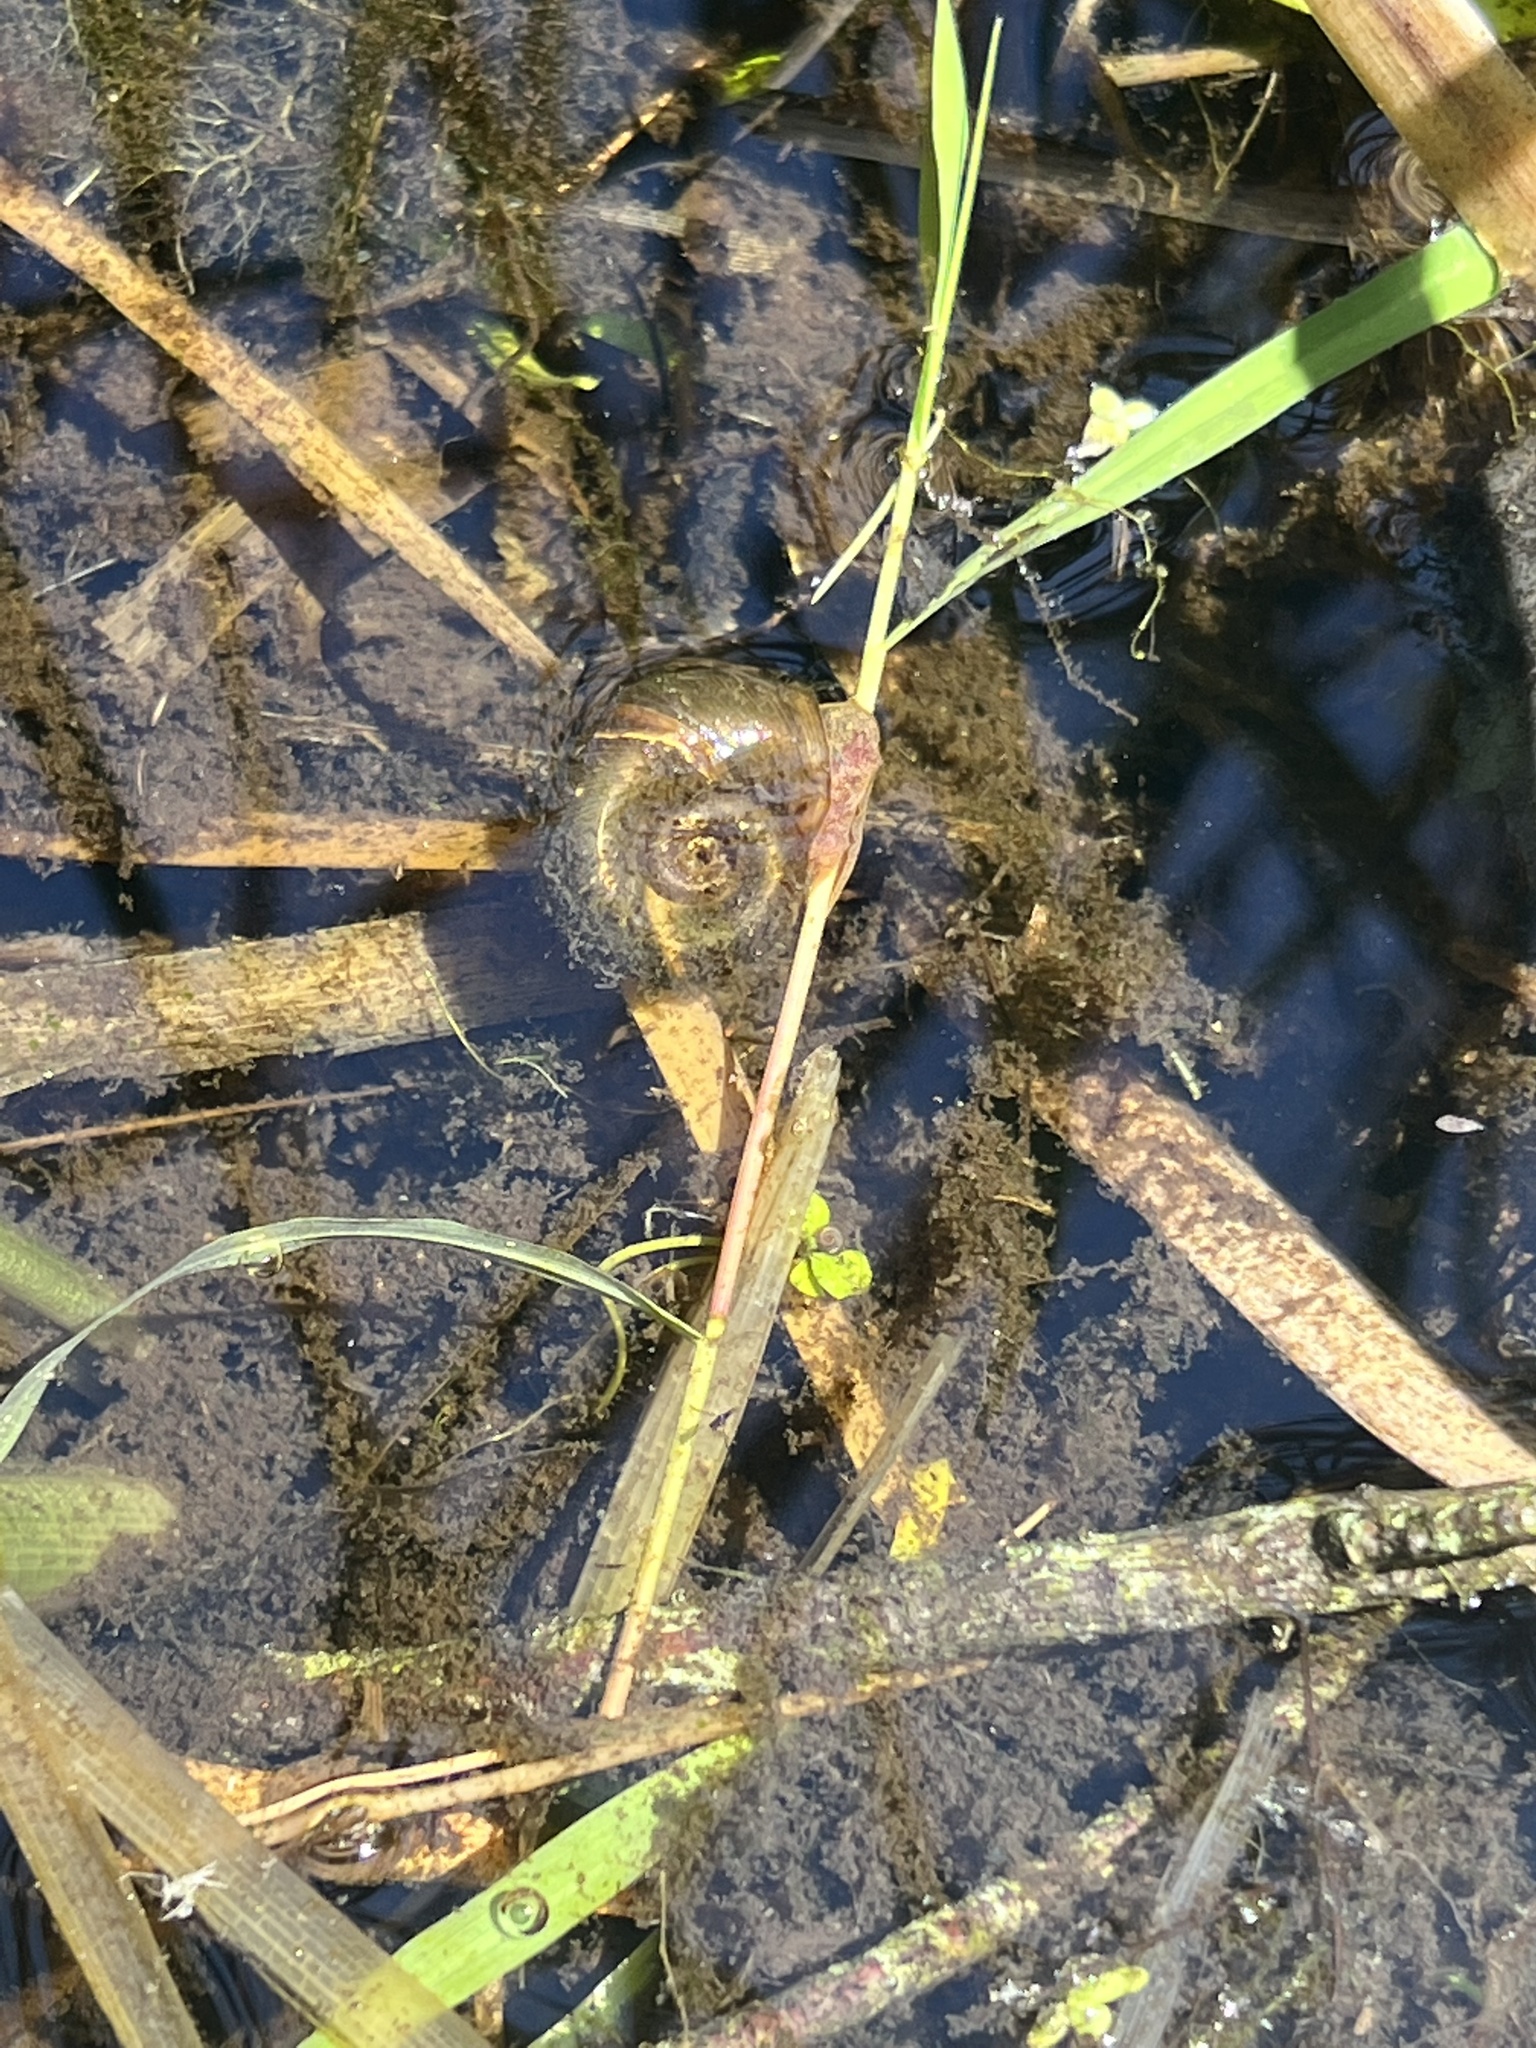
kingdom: Animalia
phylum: Mollusca
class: Gastropoda
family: Planorbidae
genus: Planorbella
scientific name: Planorbella trivolvis
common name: Marsh rams-horn
